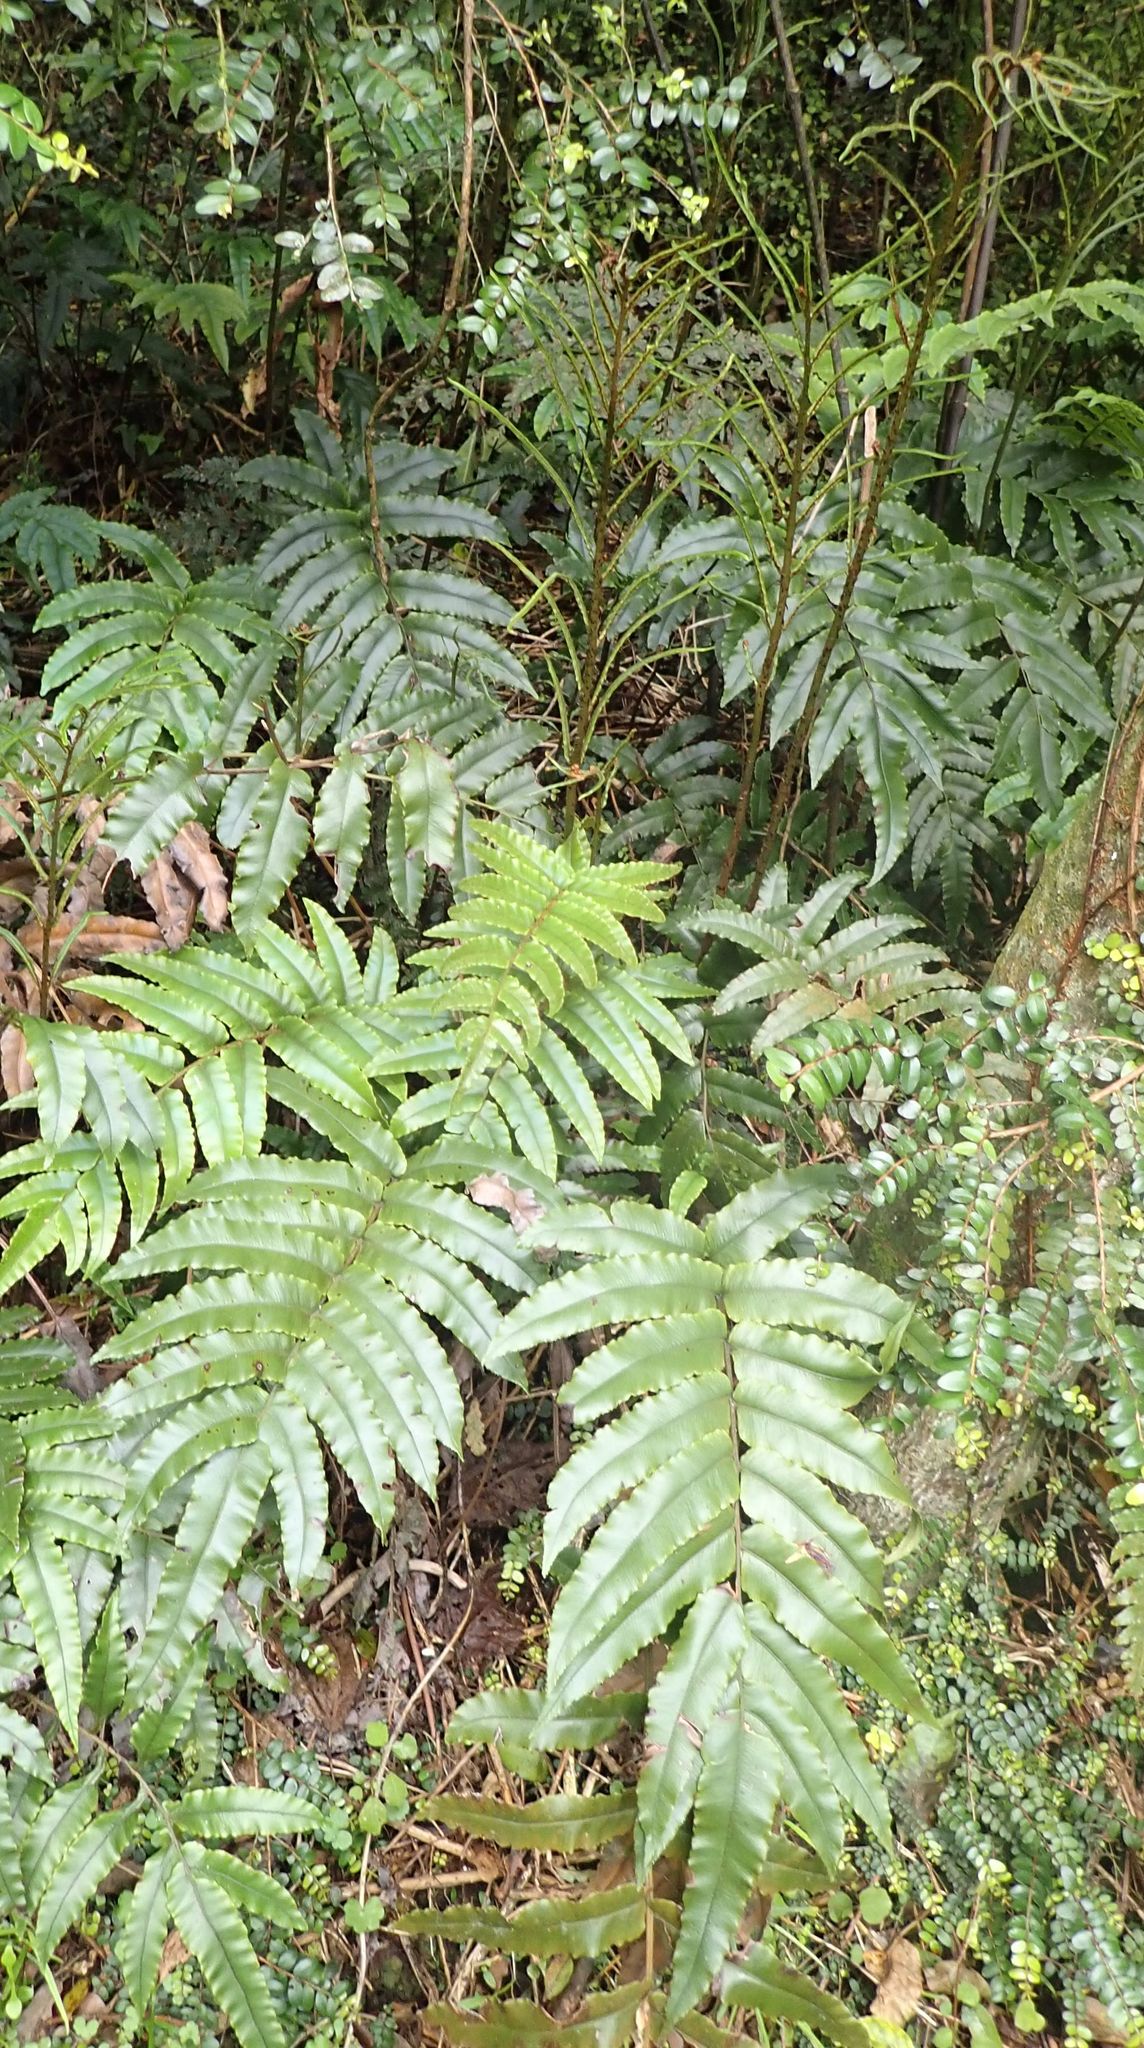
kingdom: Plantae
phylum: Tracheophyta
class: Polypodiopsida
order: Polypodiales
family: Blechnaceae
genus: Parablechnum
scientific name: Parablechnum procerum
